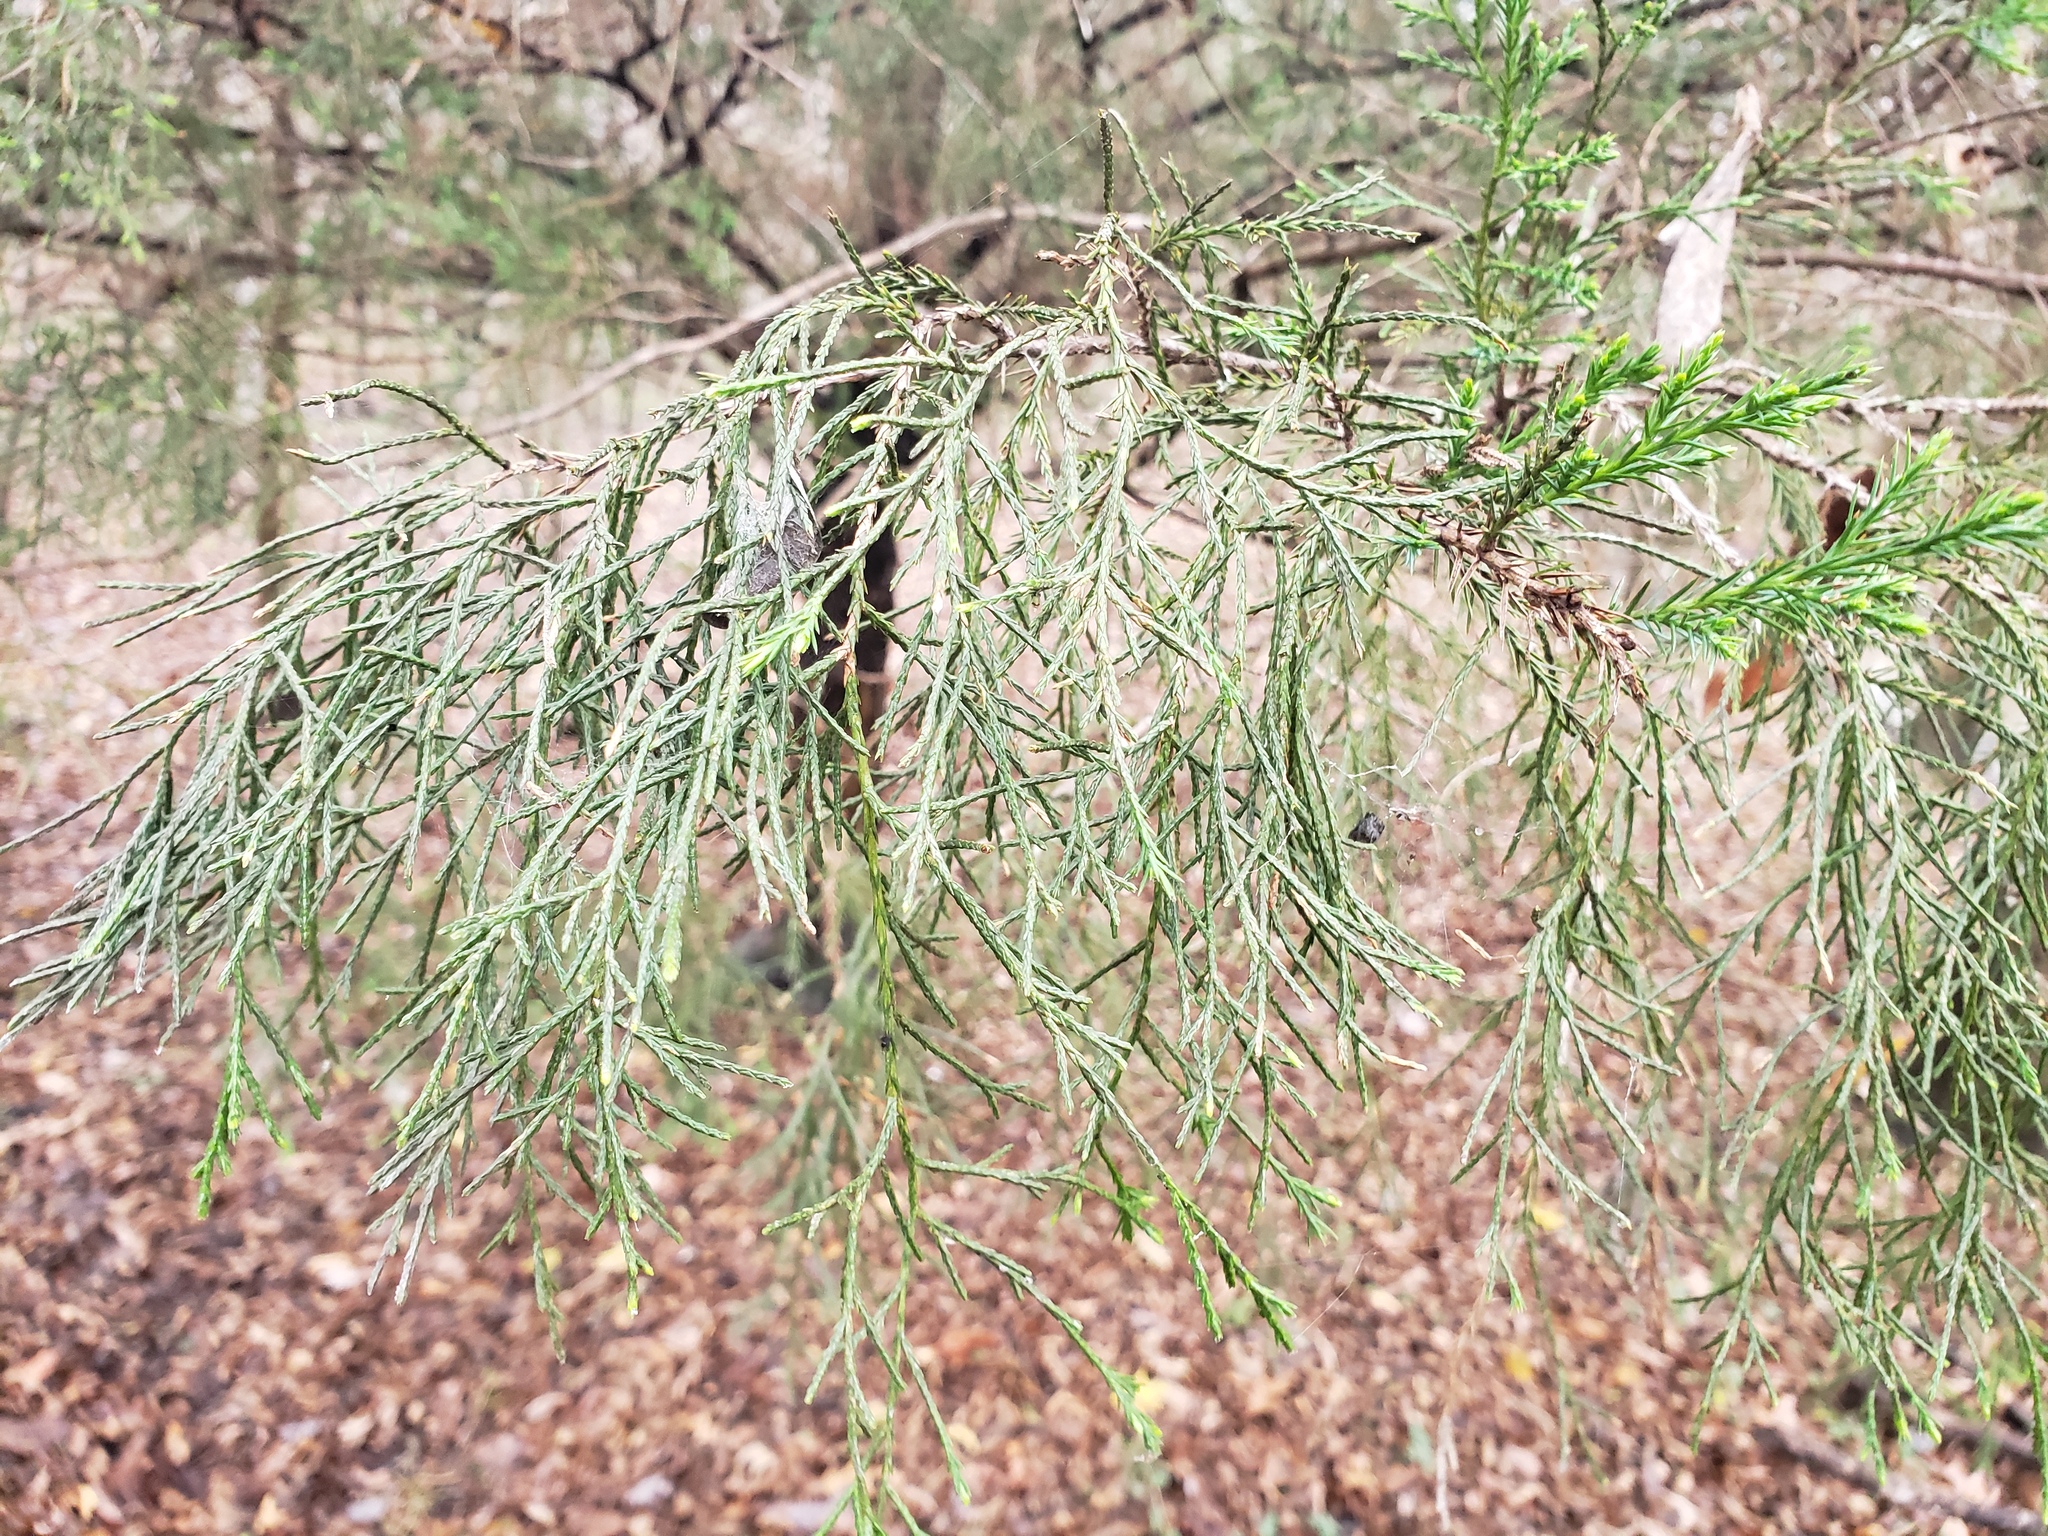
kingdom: Plantae
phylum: Tracheophyta
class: Pinopsida
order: Pinales
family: Cupressaceae
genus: Juniperus
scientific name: Juniperus virginiana
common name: Red juniper
